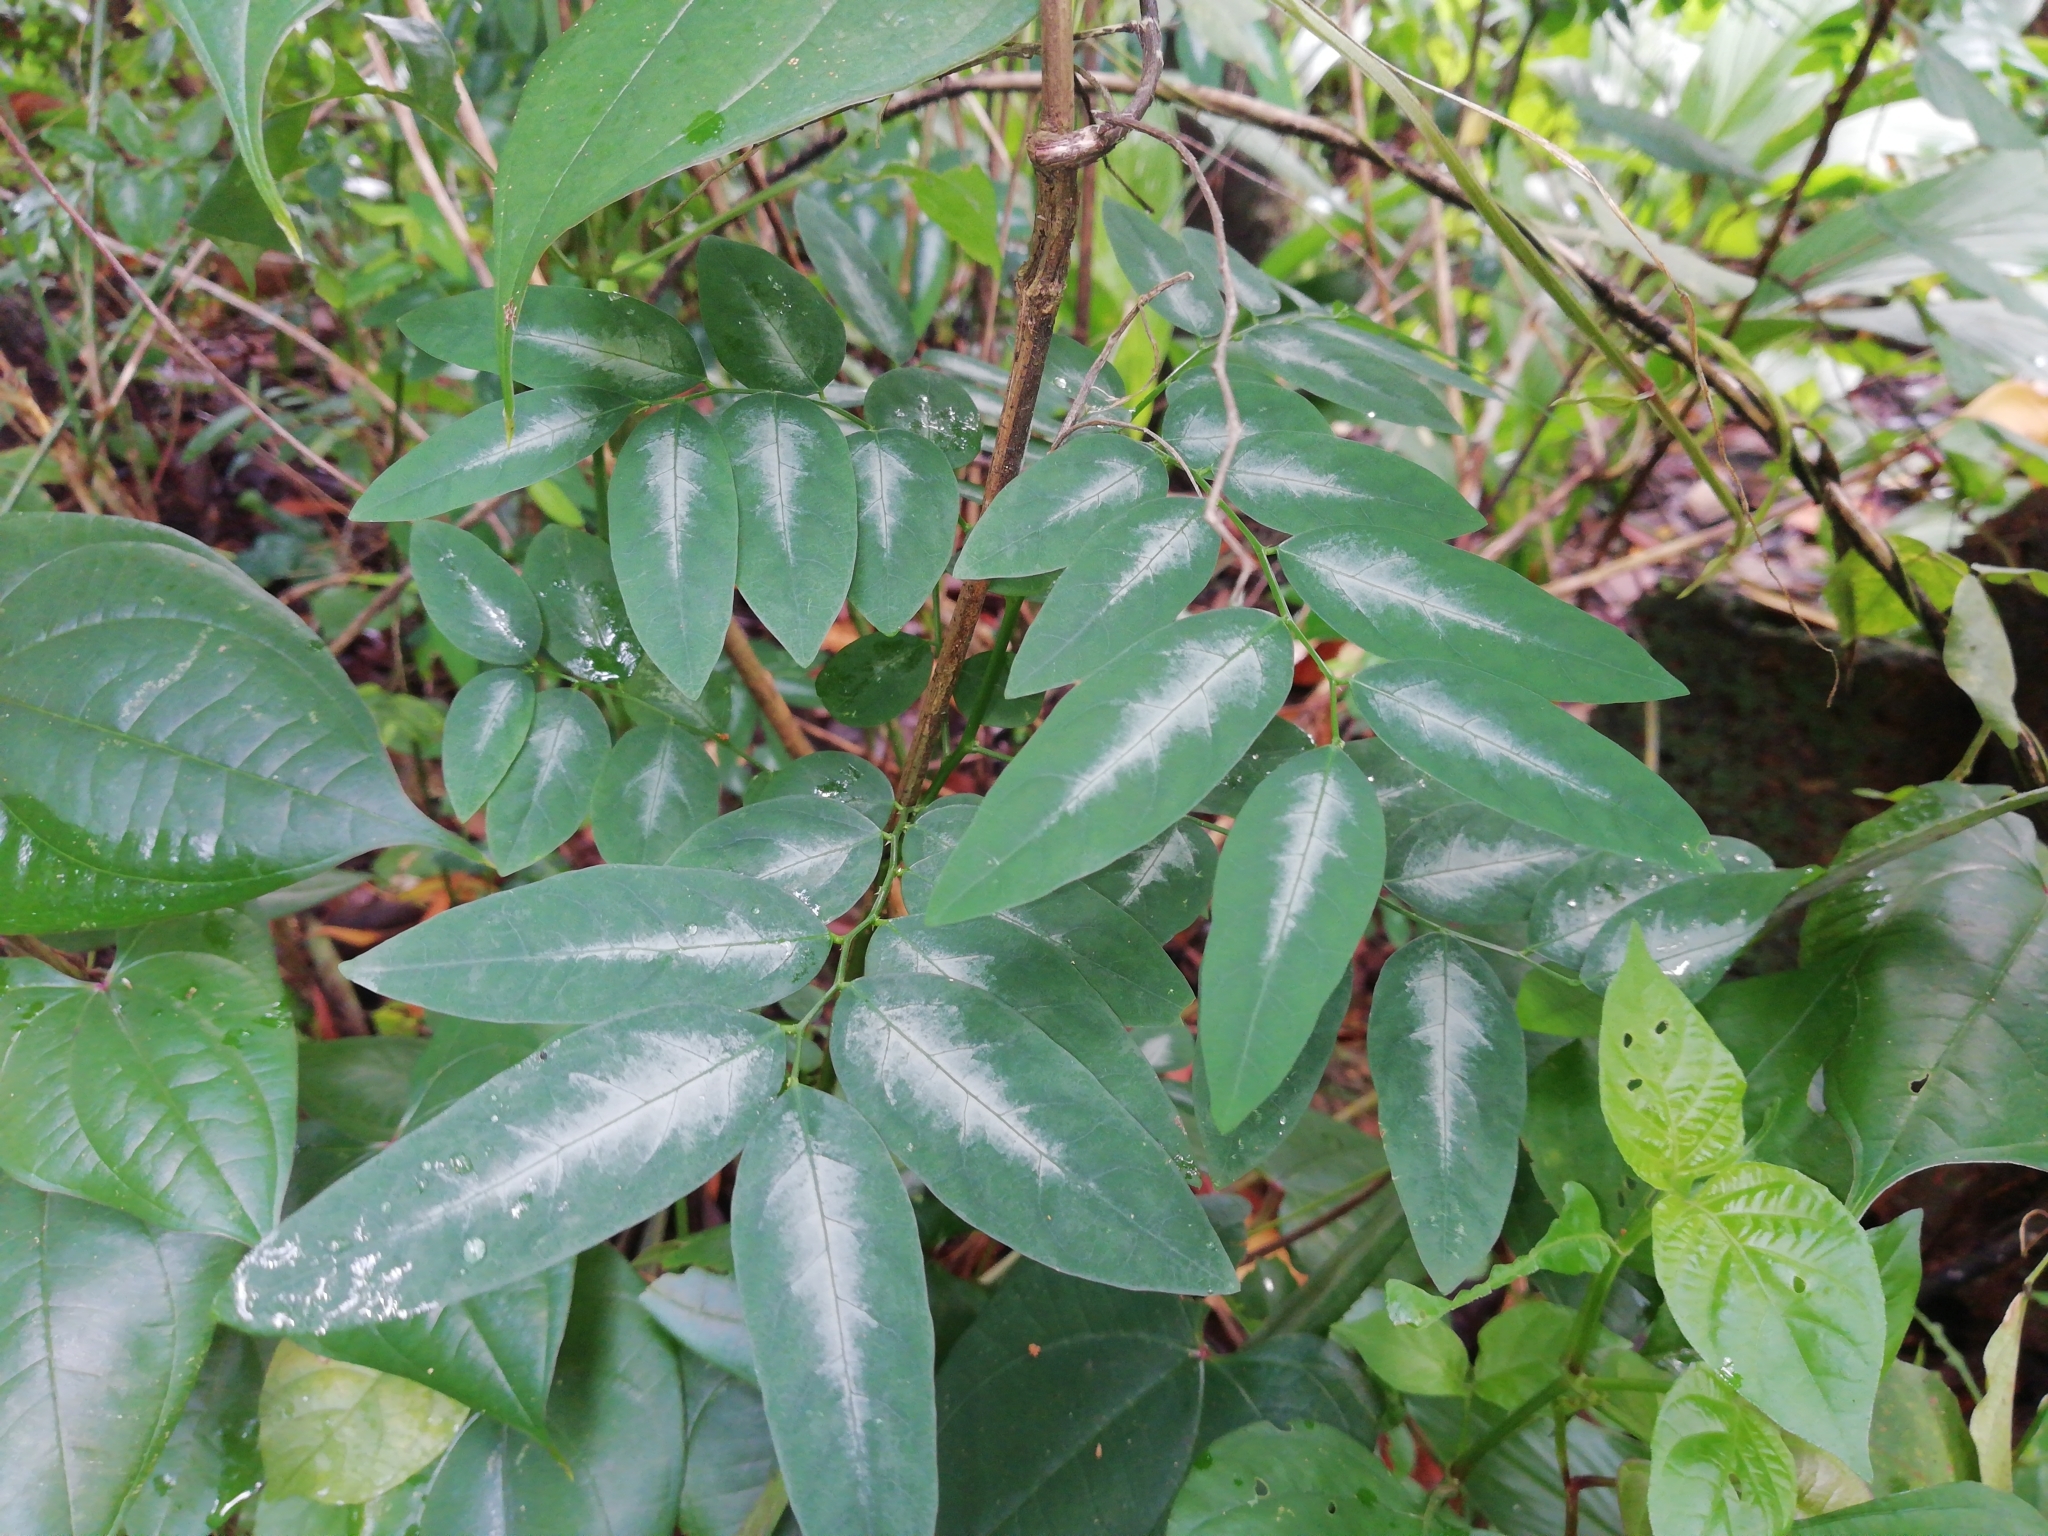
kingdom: Plantae
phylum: Tracheophyta
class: Magnoliopsida
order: Malpighiales
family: Phyllanthaceae
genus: Breynia
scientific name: Breynia androgyna
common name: Star gooseberry
